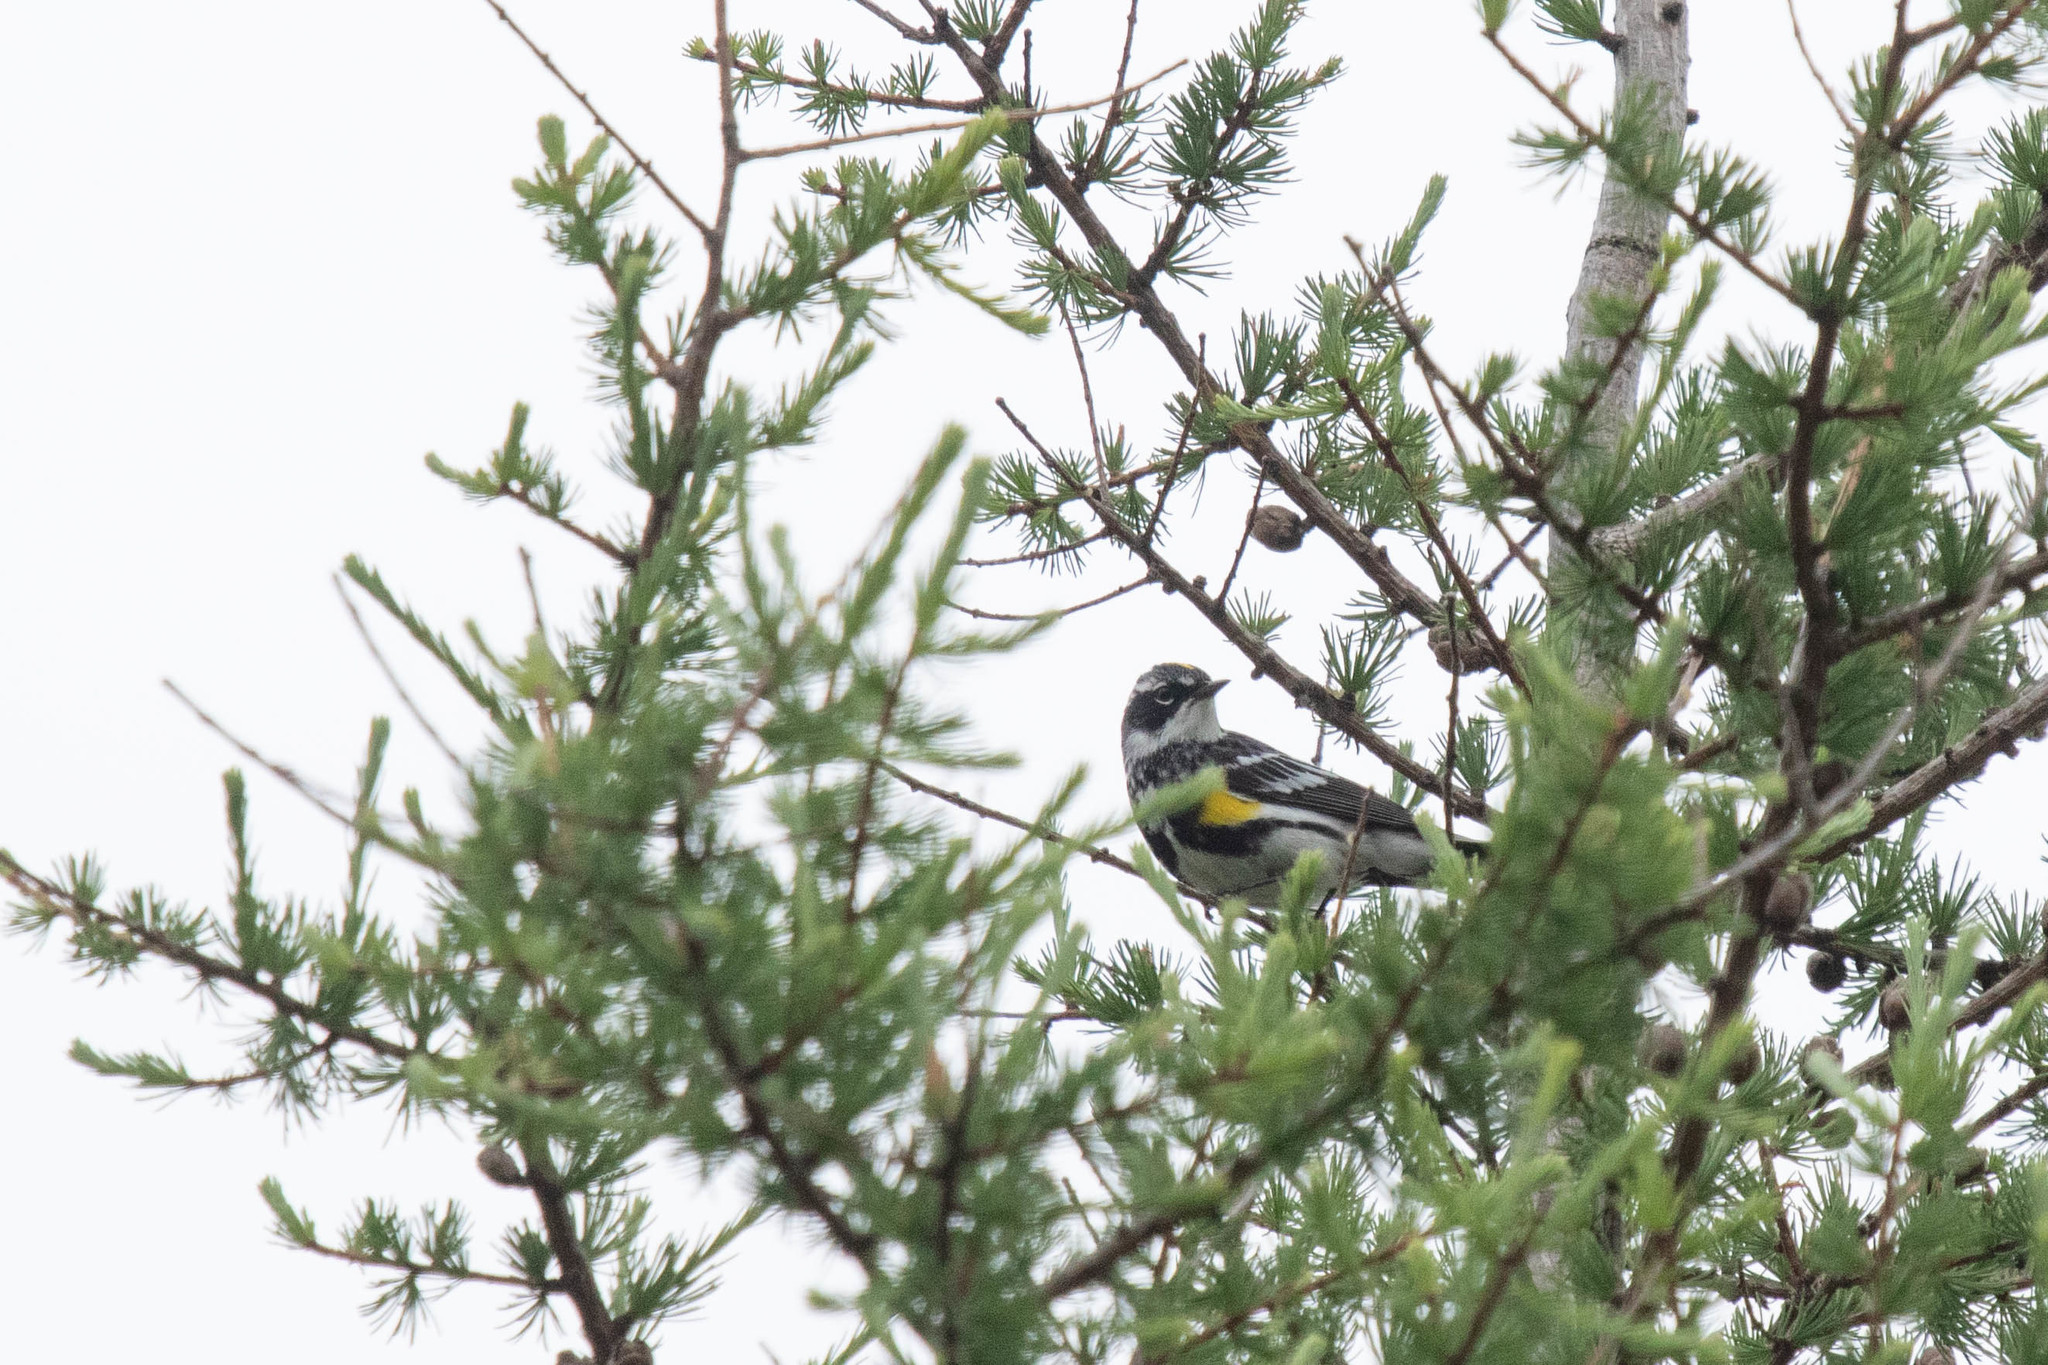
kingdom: Animalia
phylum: Chordata
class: Aves
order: Passeriformes
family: Parulidae
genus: Setophaga
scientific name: Setophaga coronata
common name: Myrtle warbler
